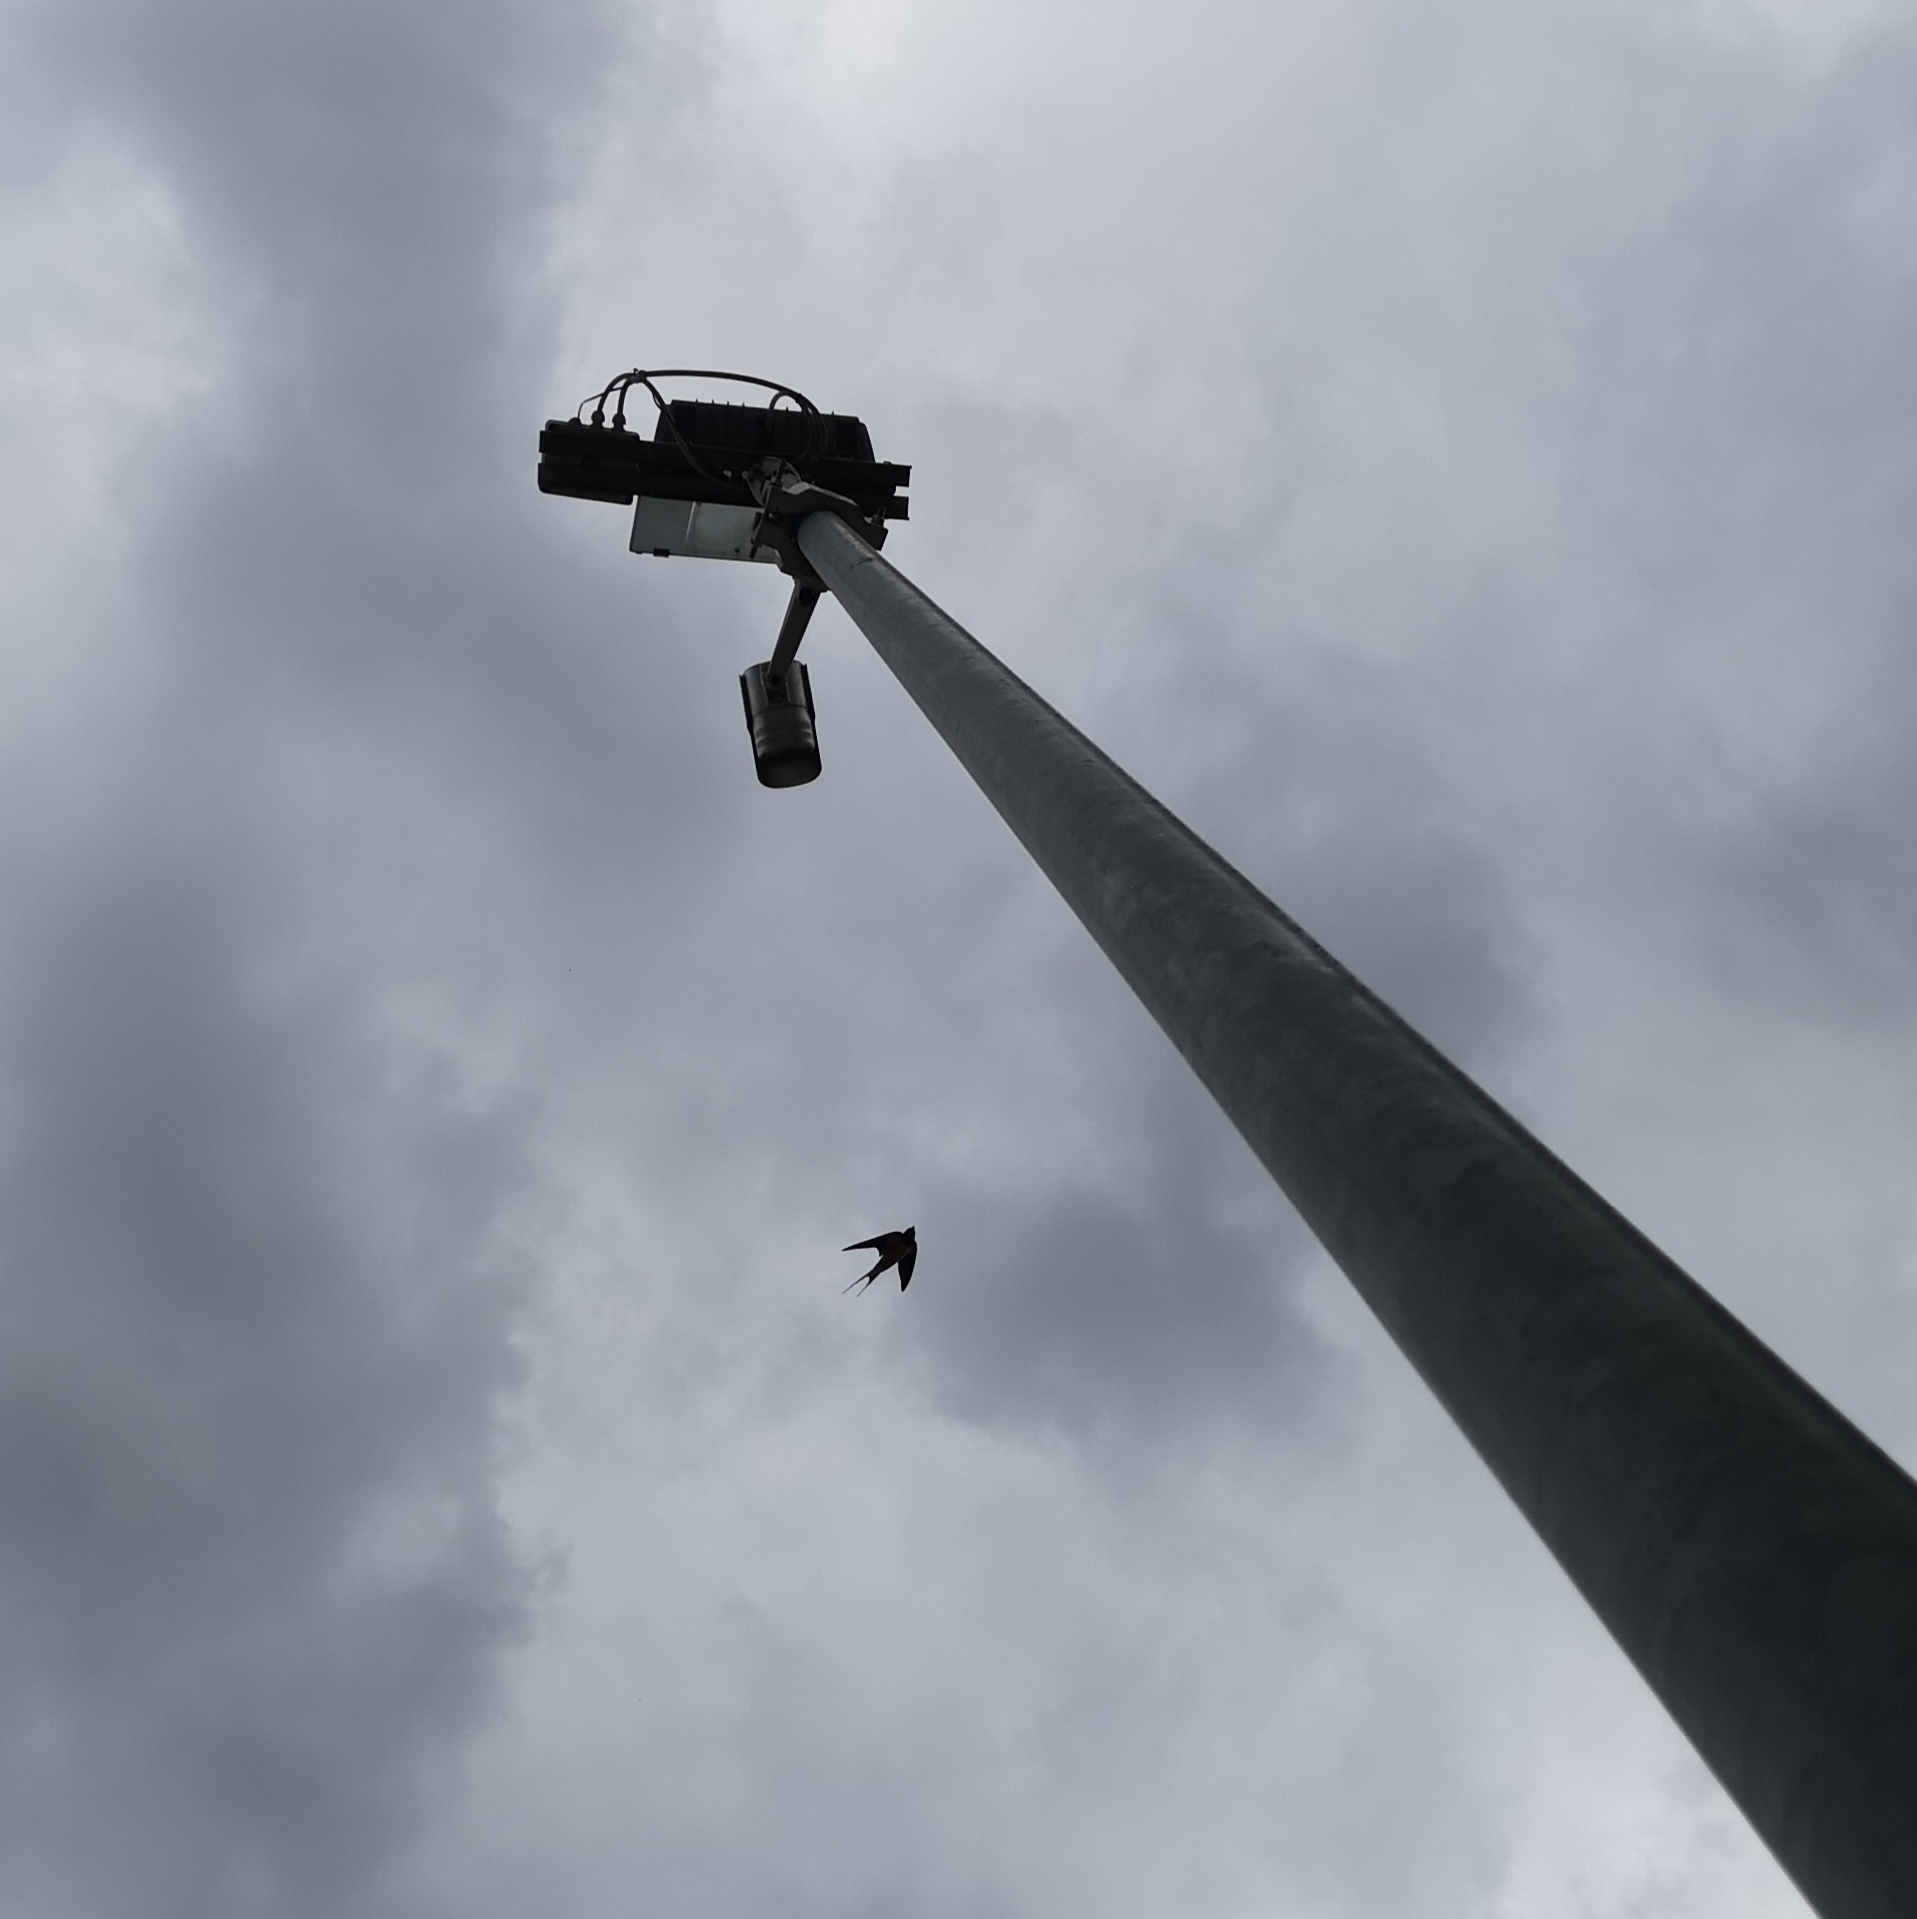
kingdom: Animalia
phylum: Chordata
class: Aves
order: Passeriformes
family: Hirundinidae
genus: Hirundo
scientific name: Hirundo rustica
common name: Barn swallow
